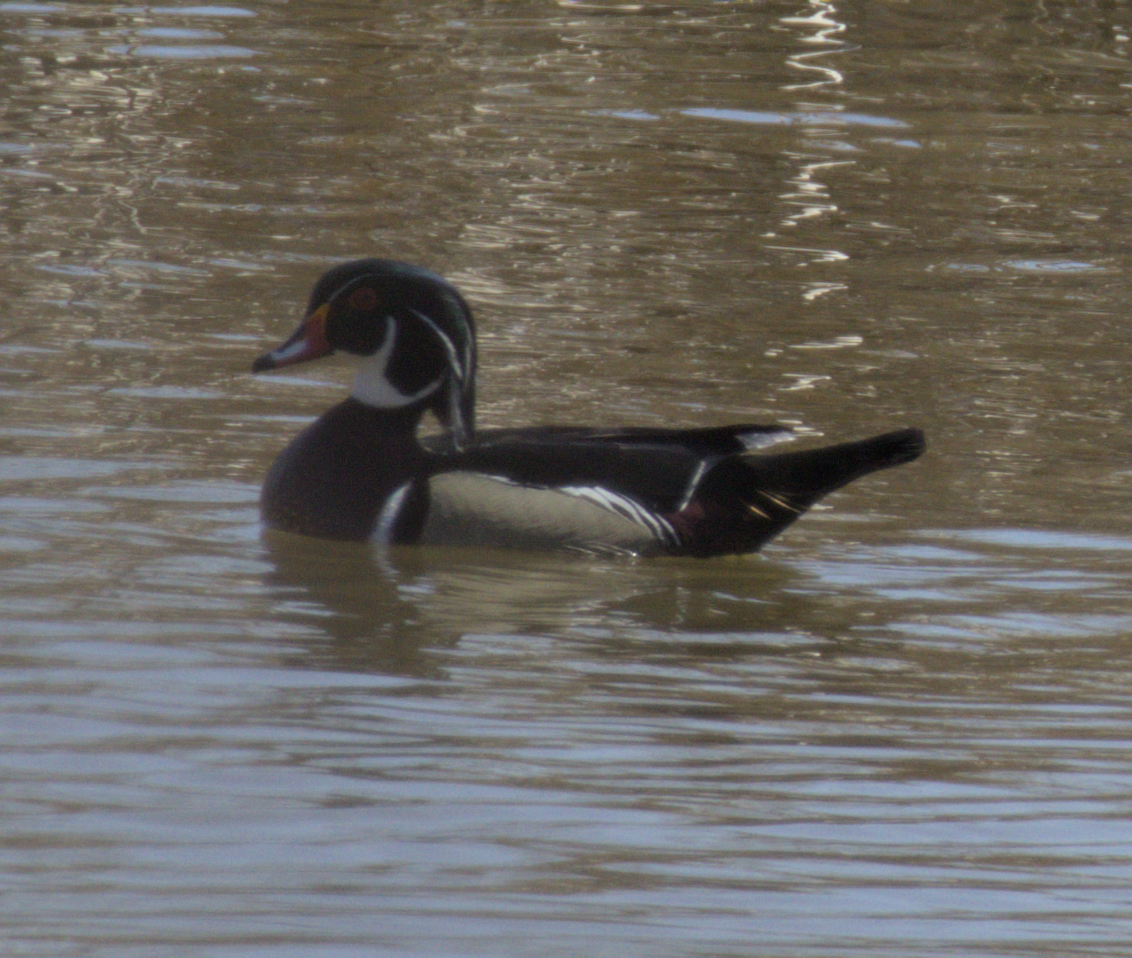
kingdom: Animalia
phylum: Chordata
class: Aves
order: Anseriformes
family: Anatidae
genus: Aix
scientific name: Aix sponsa
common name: Wood duck
